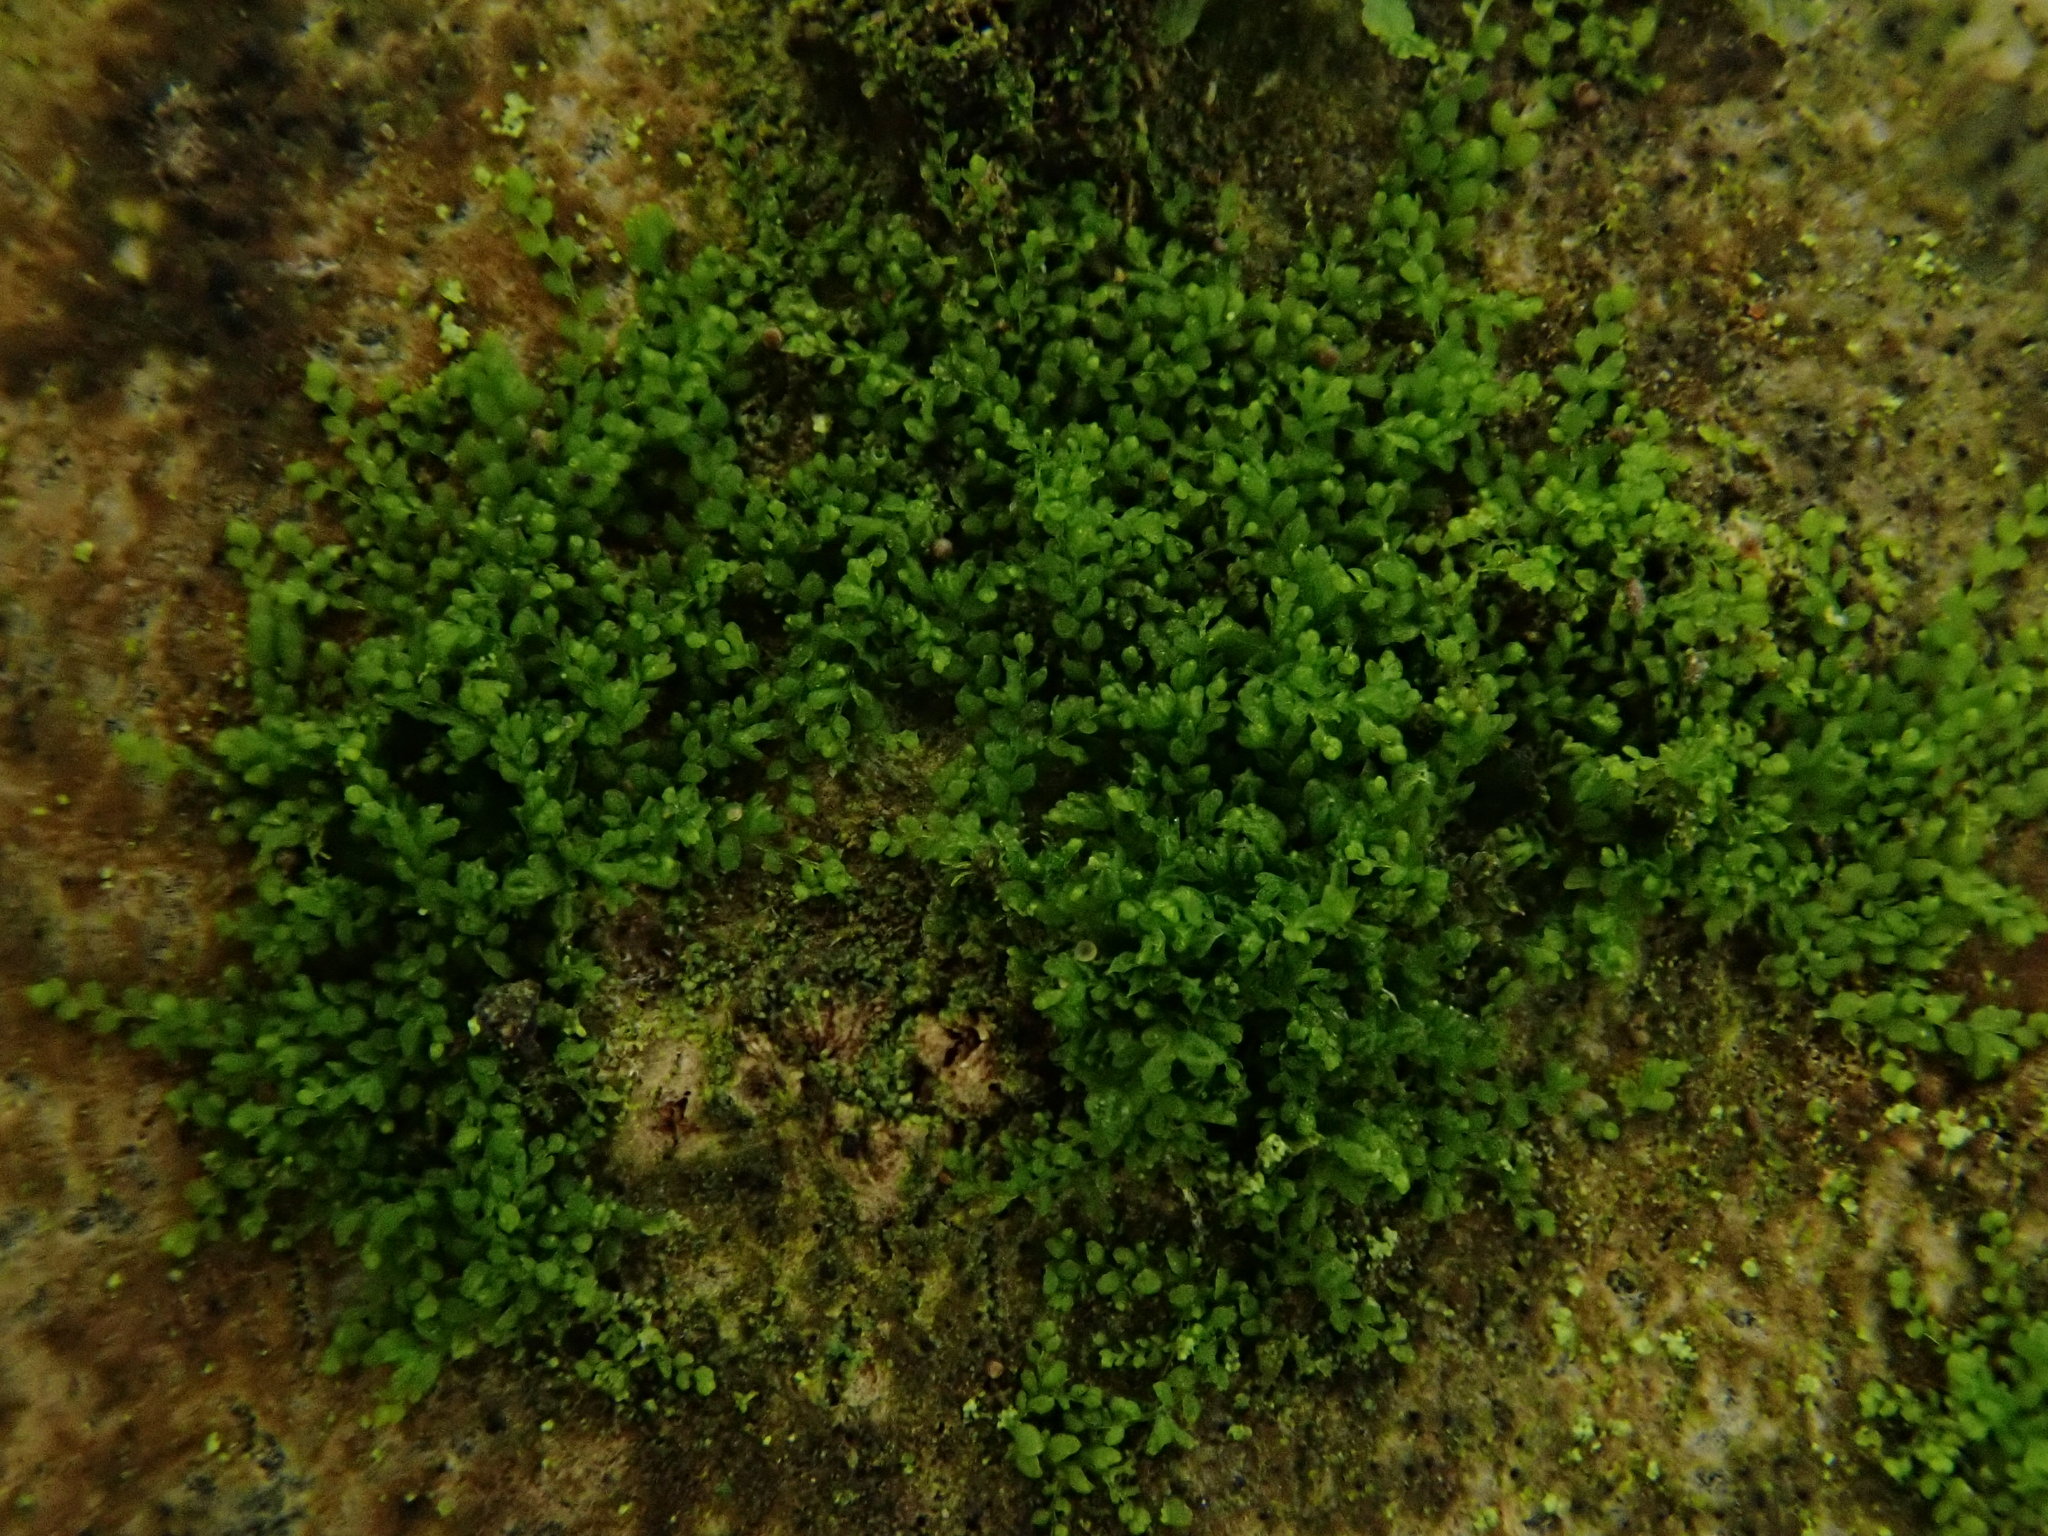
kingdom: Plantae
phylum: Marchantiophyta
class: Jungermanniopsida
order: Porellales
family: Lejeuneaceae
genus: Myriocoleopsis
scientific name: Myriocoleopsis minutissima
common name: Minute pouncewort
